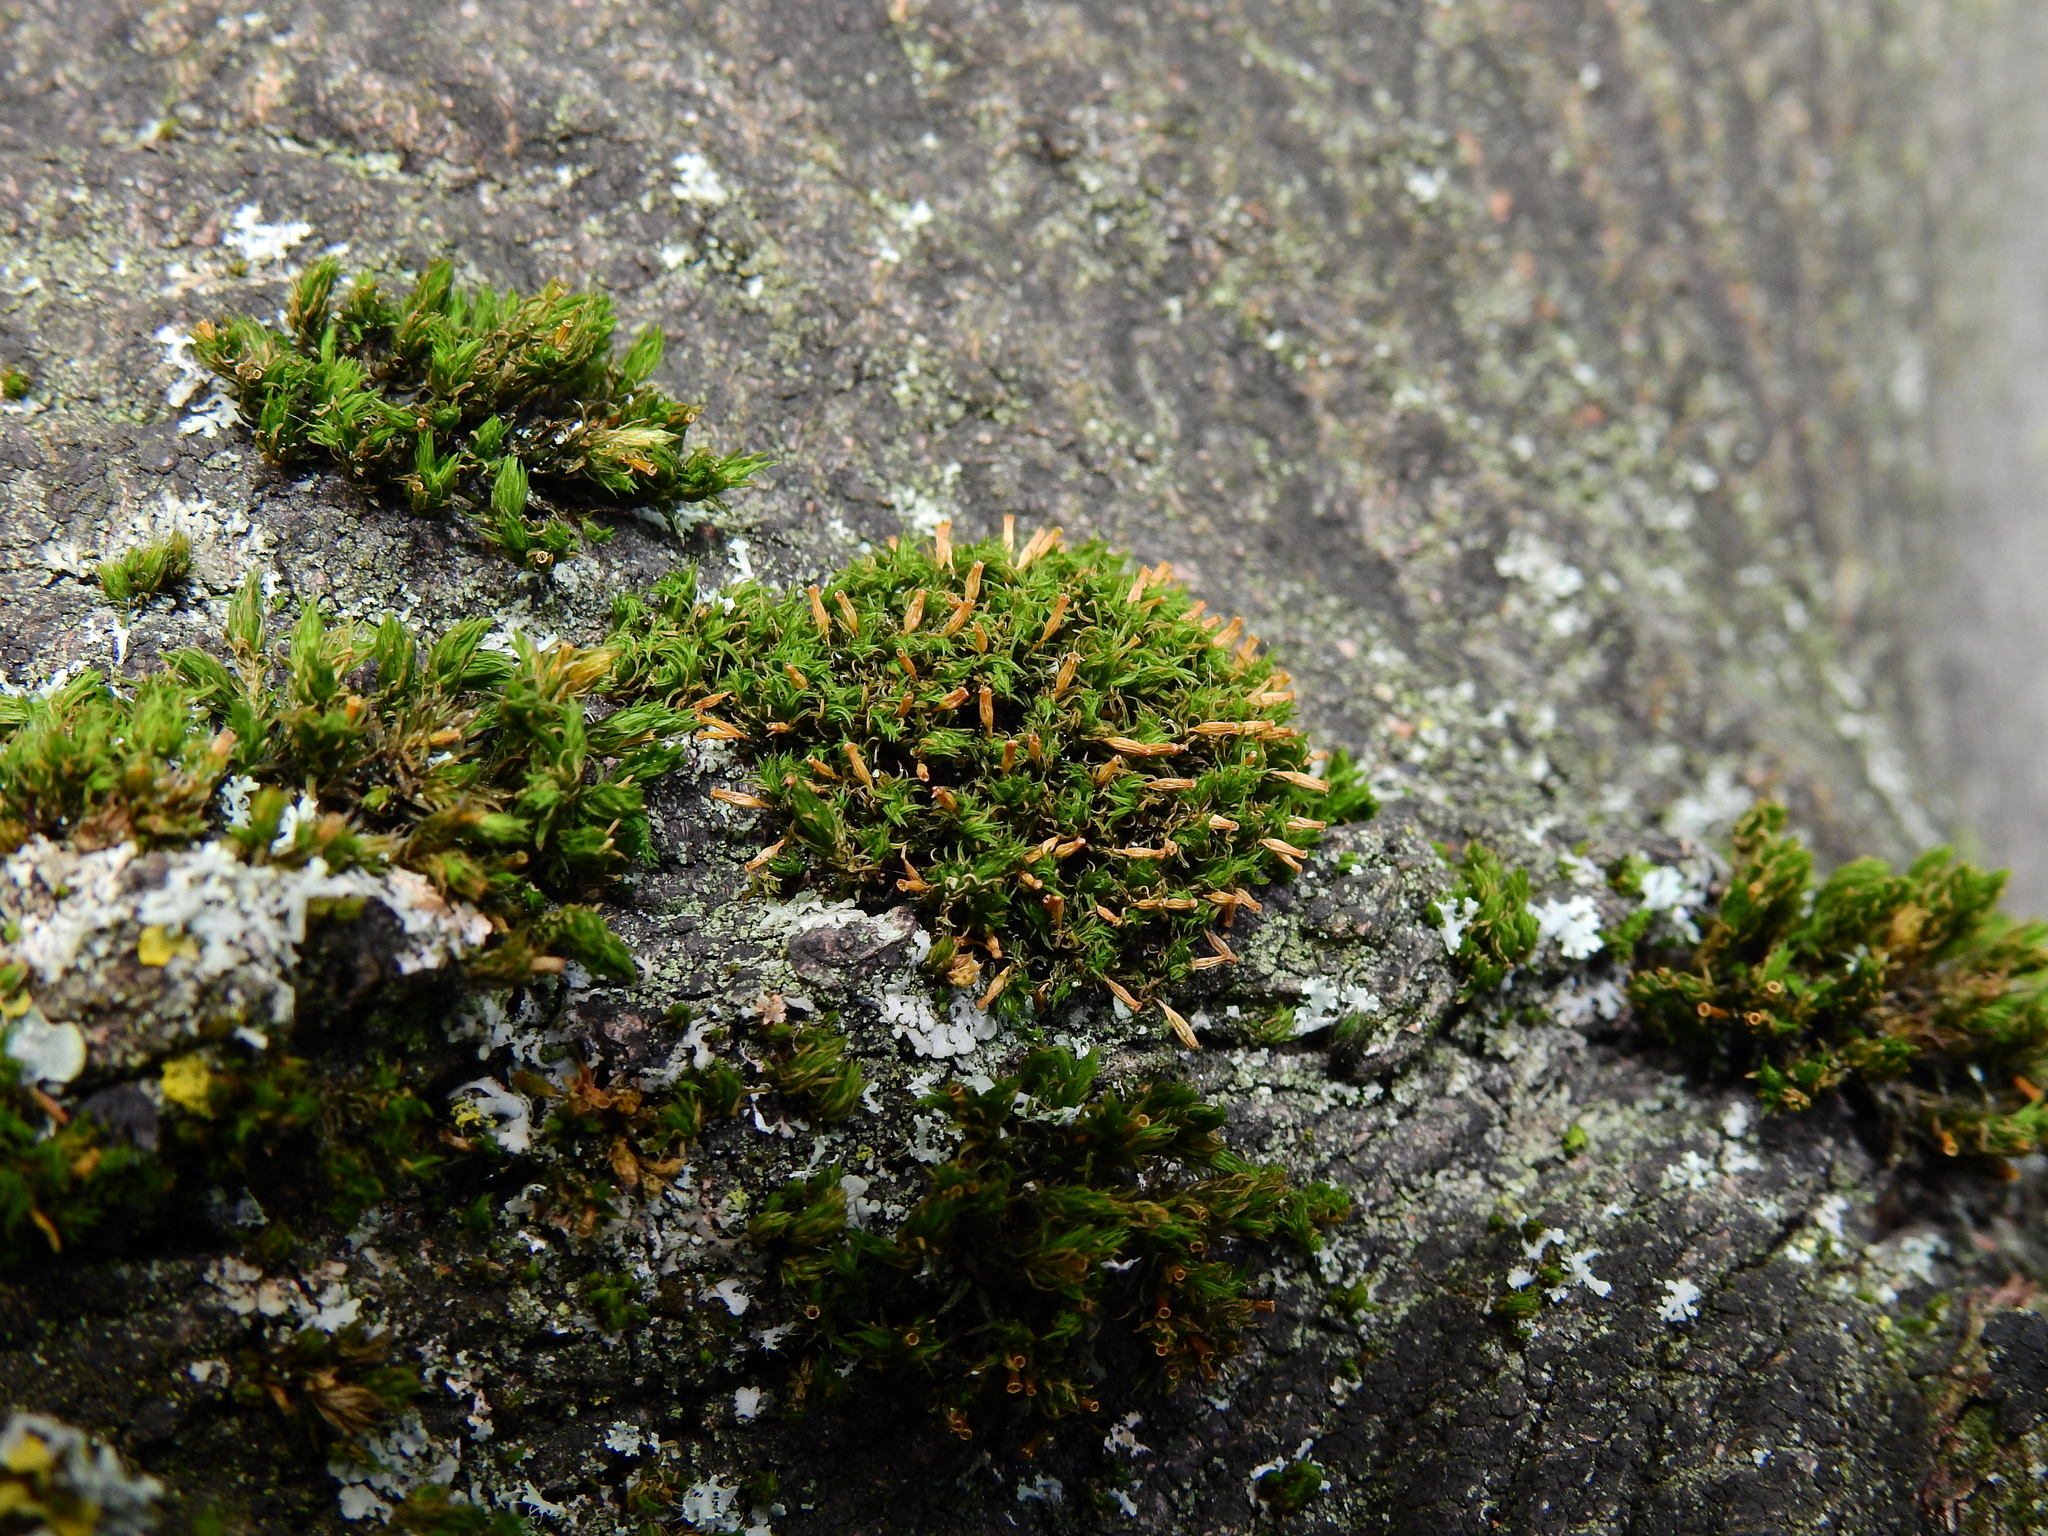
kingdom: Plantae
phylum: Bryophyta
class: Bryopsida
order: Orthotrichales
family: Orthotrichaceae
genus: Orthotrichum
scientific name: Orthotrichum anomalum
